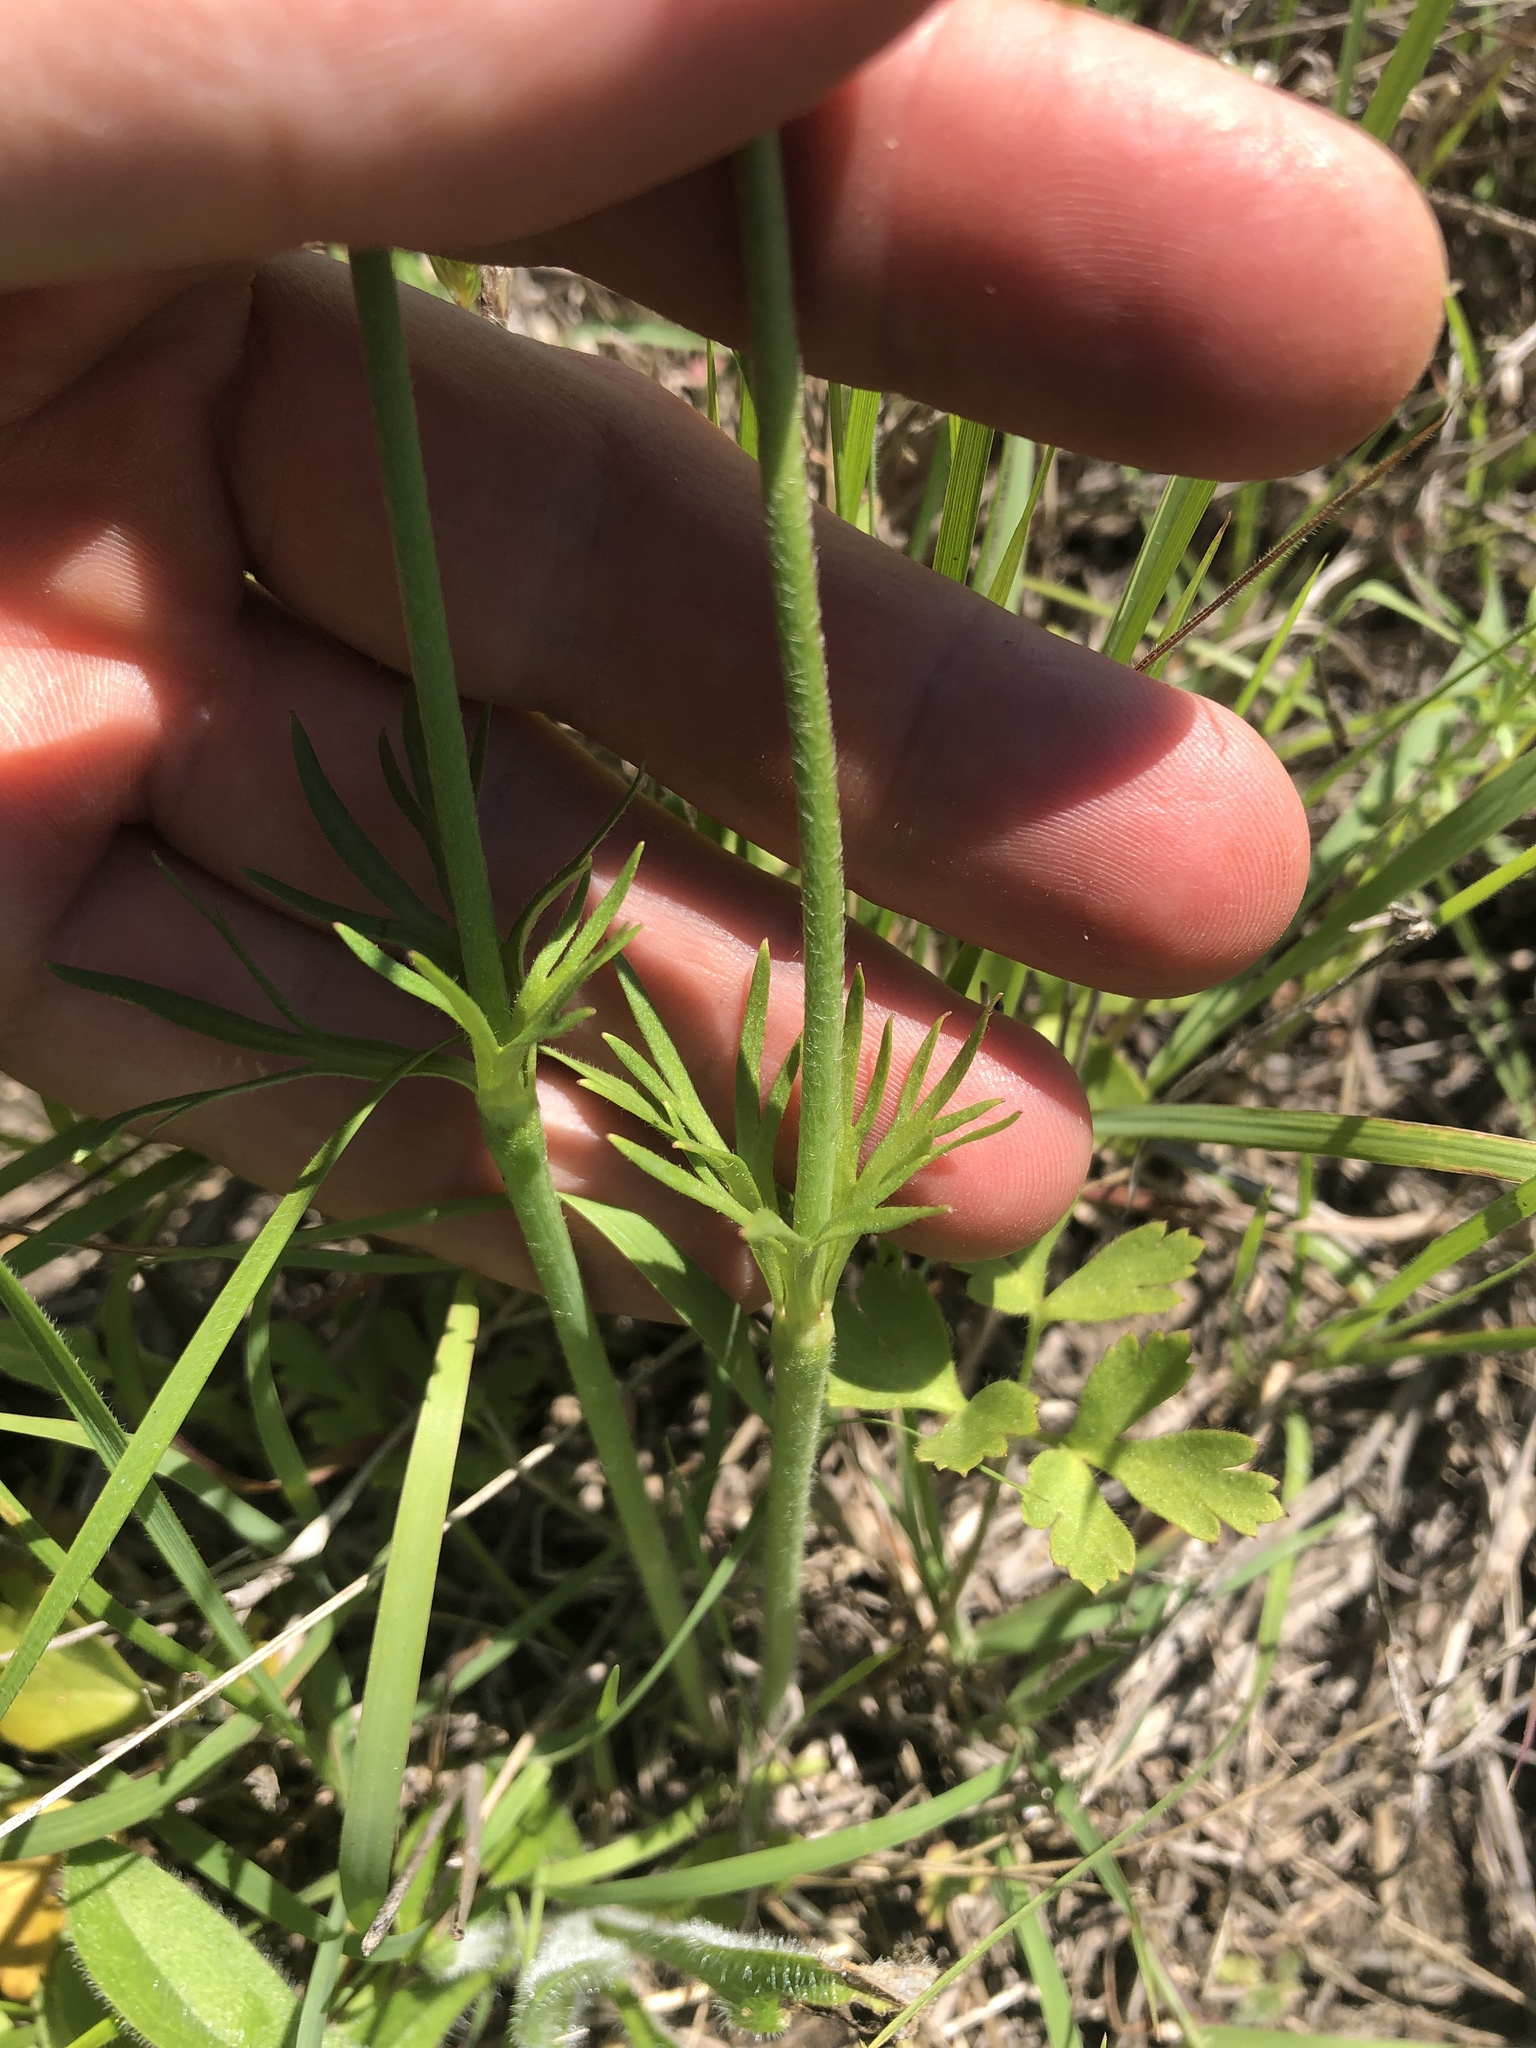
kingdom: Plantae
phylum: Tracheophyta
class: Magnoliopsida
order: Ranunculales
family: Ranunculaceae
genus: Anemone
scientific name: Anemone berlandieri
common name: Ten-petal anemone
